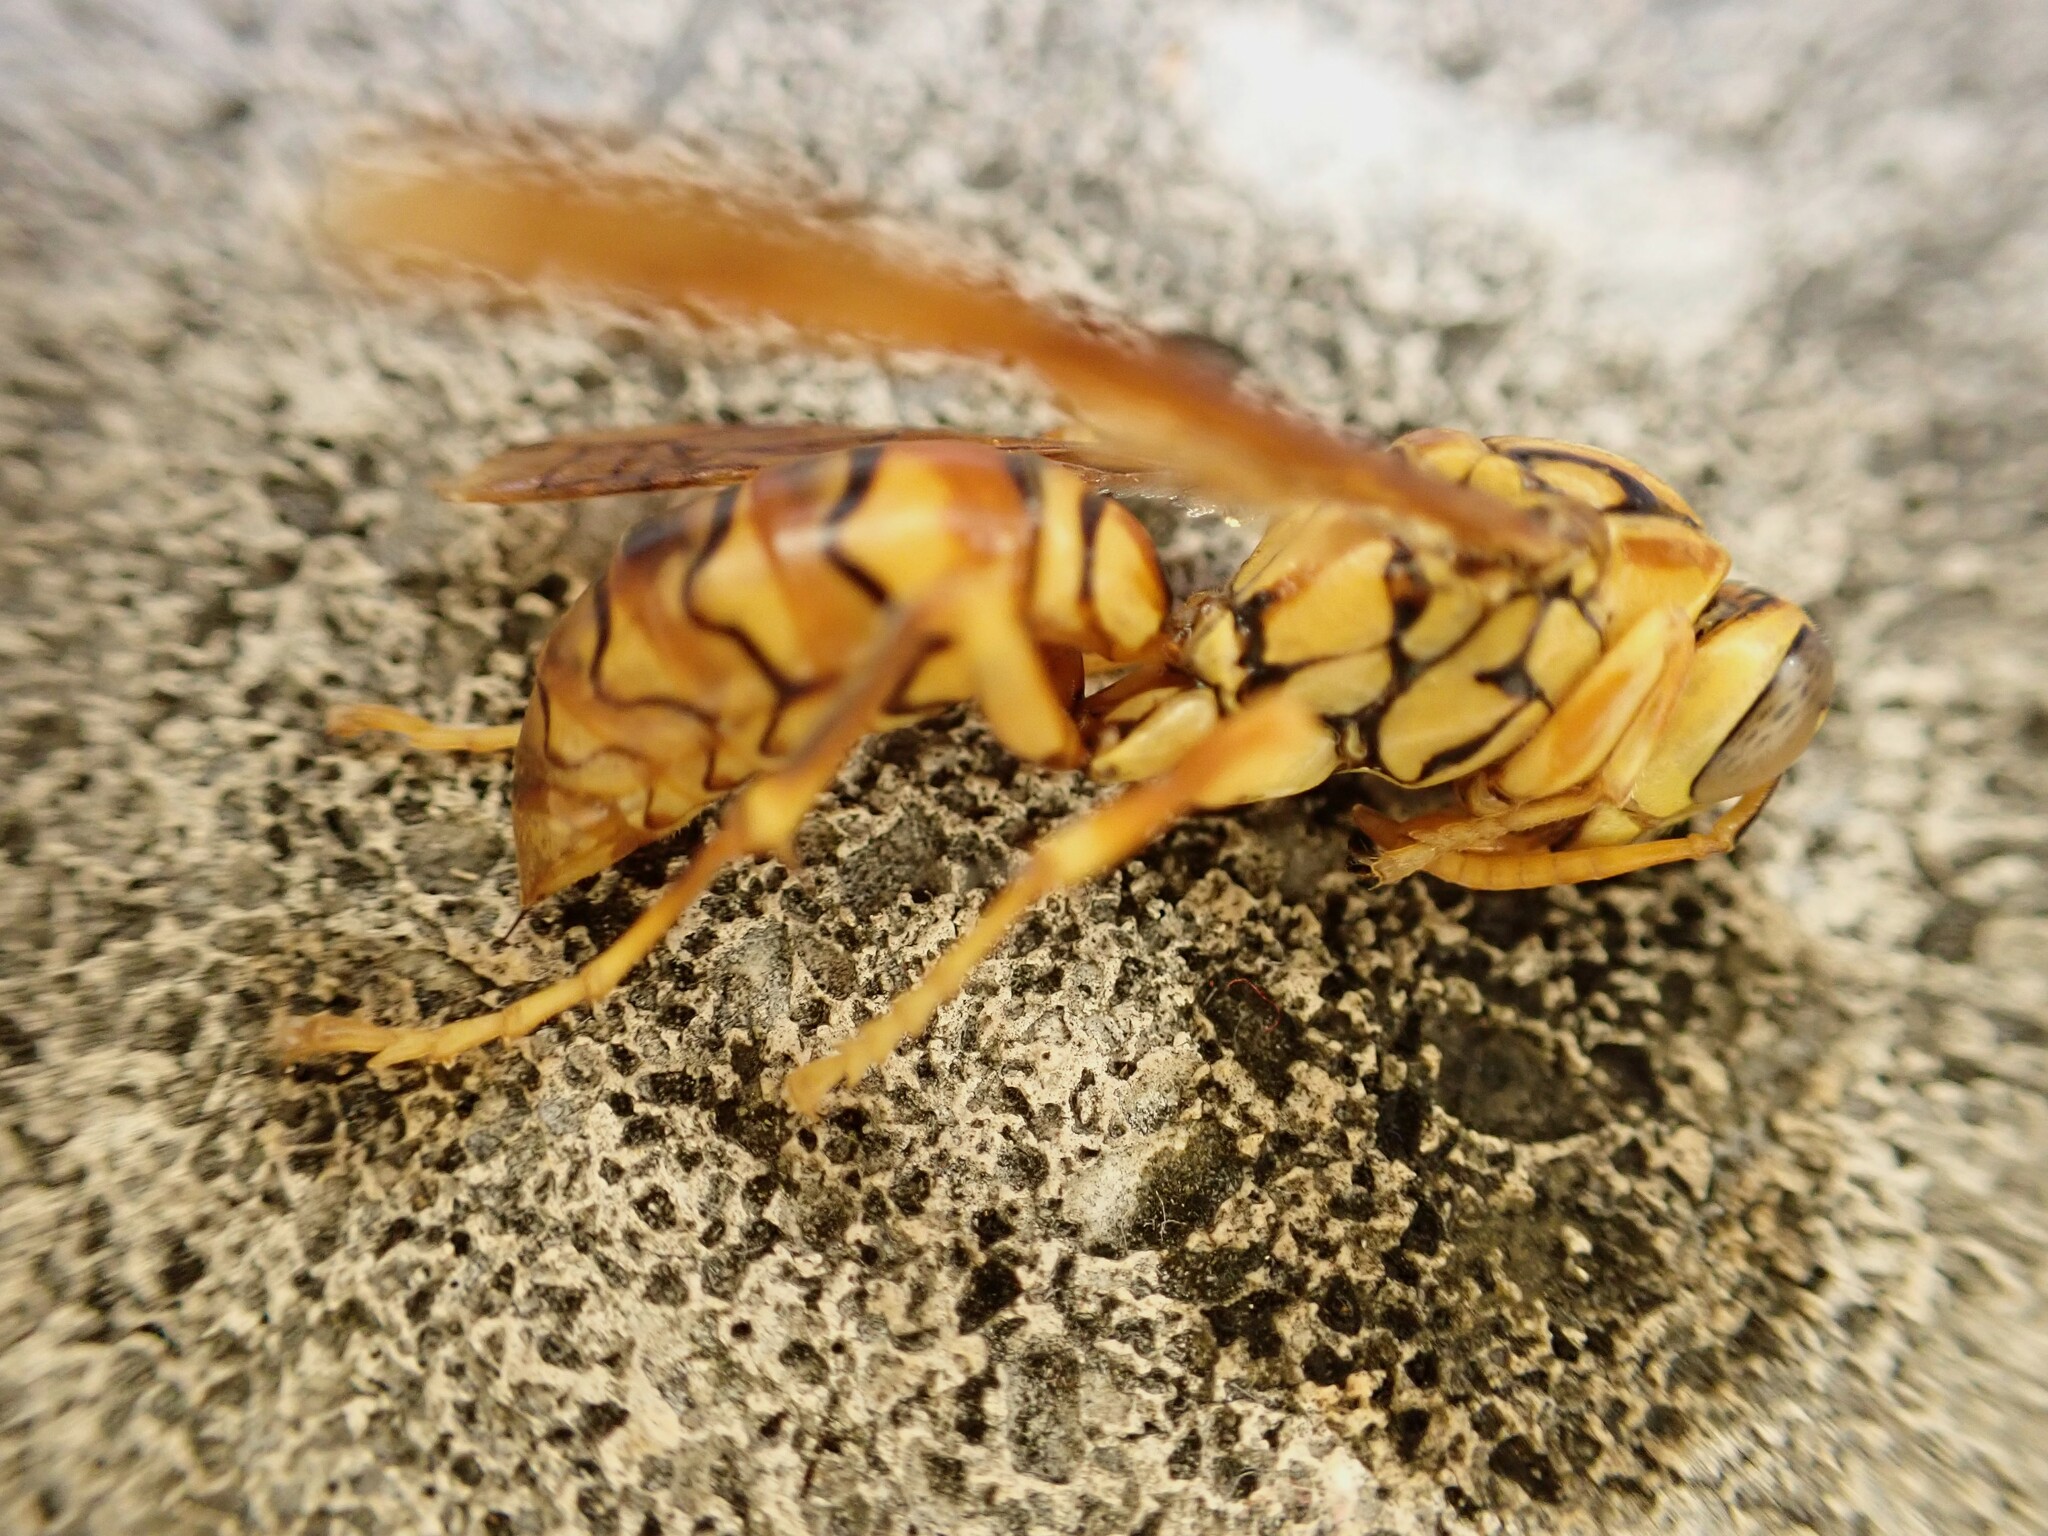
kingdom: Animalia
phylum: Arthropoda
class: Insecta
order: Hymenoptera
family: Eumenidae
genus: Polistes
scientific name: Polistes olivaceus
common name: Paper wasp
